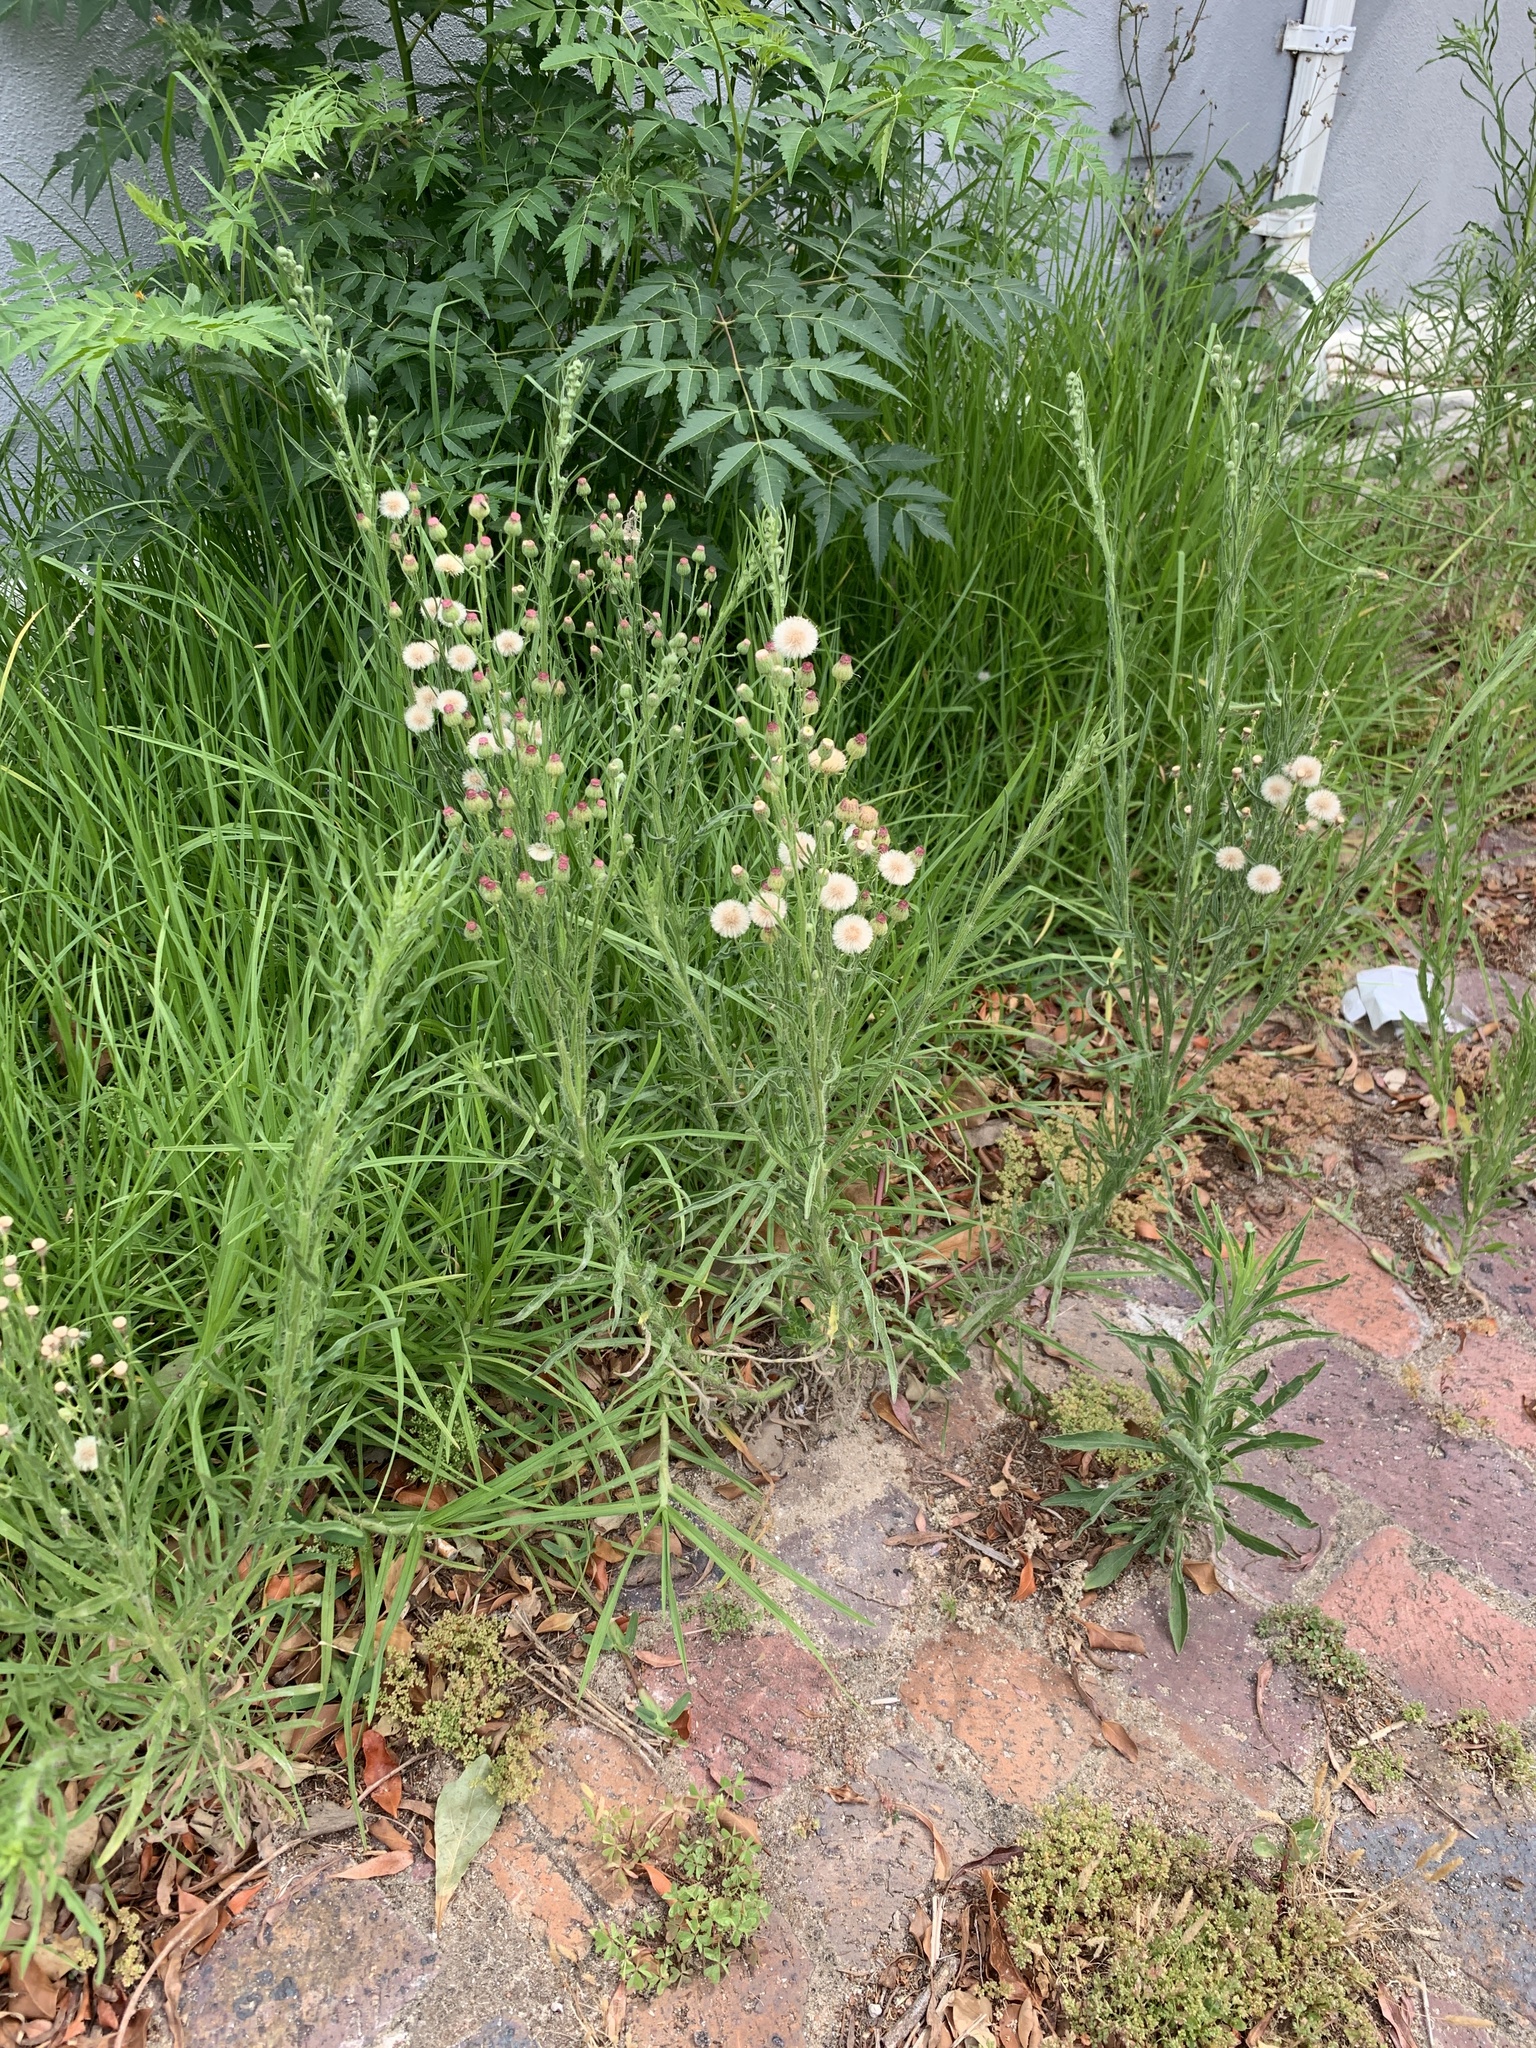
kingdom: Plantae
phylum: Tracheophyta
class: Magnoliopsida
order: Asterales
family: Asteraceae
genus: Erigeron
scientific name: Erigeron bonariensis
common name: Argentine fleabane
